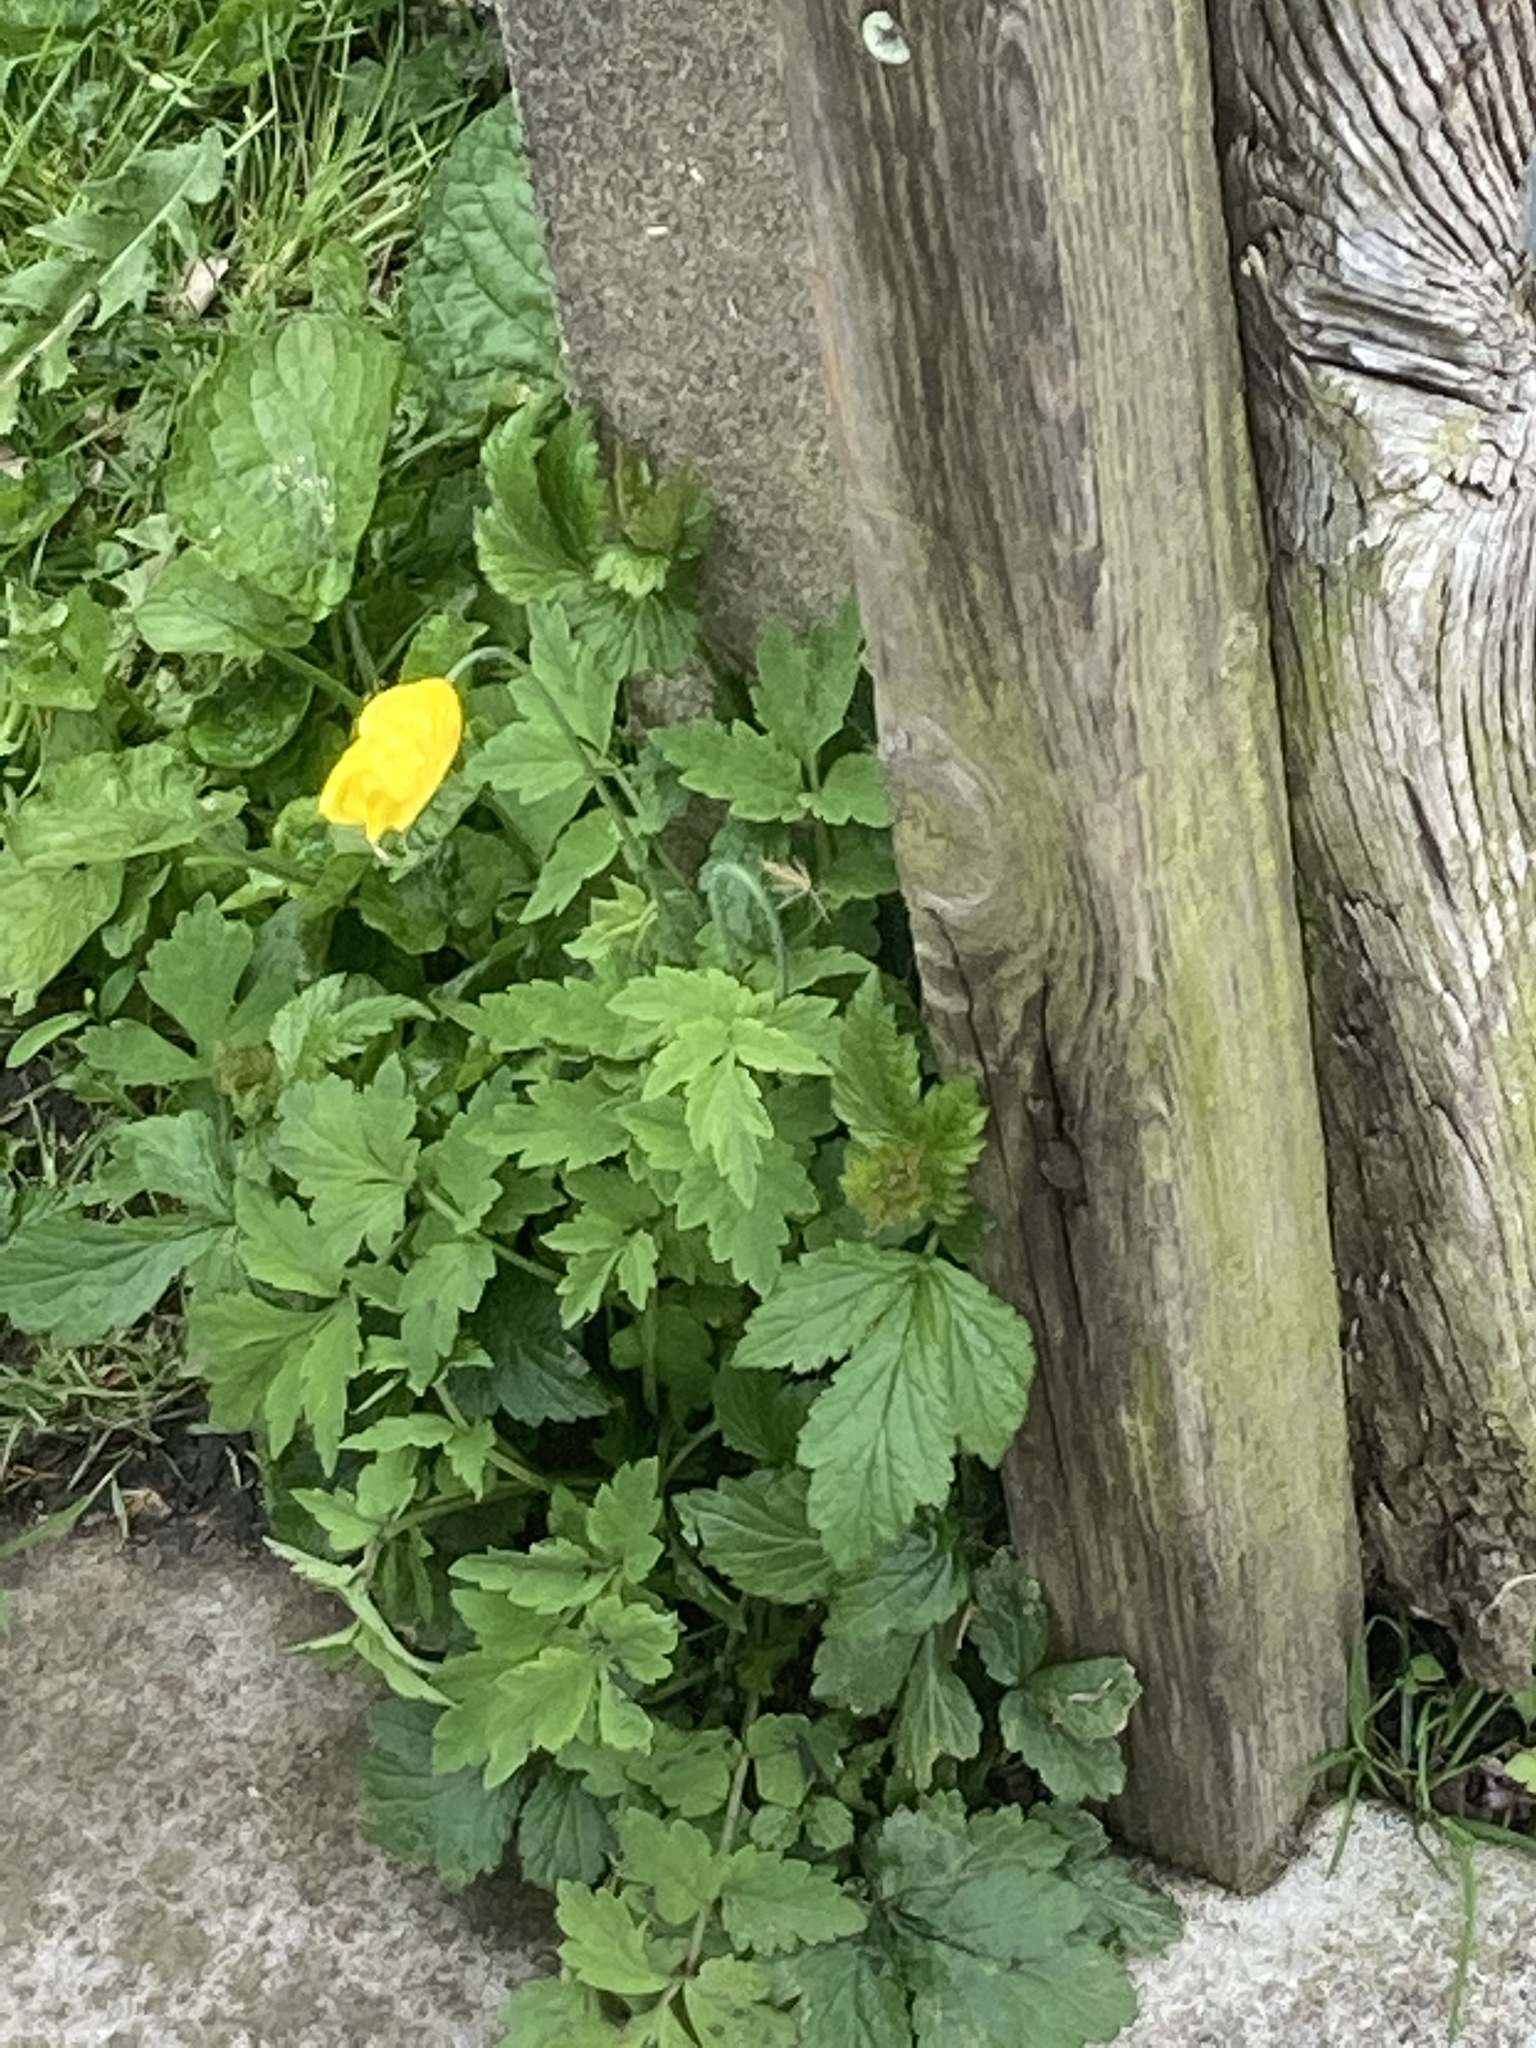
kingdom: Plantae
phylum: Tracheophyta
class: Magnoliopsida
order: Ranunculales
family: Papaveraceae
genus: Papaver
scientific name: Papaver cambricum
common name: Poppy
